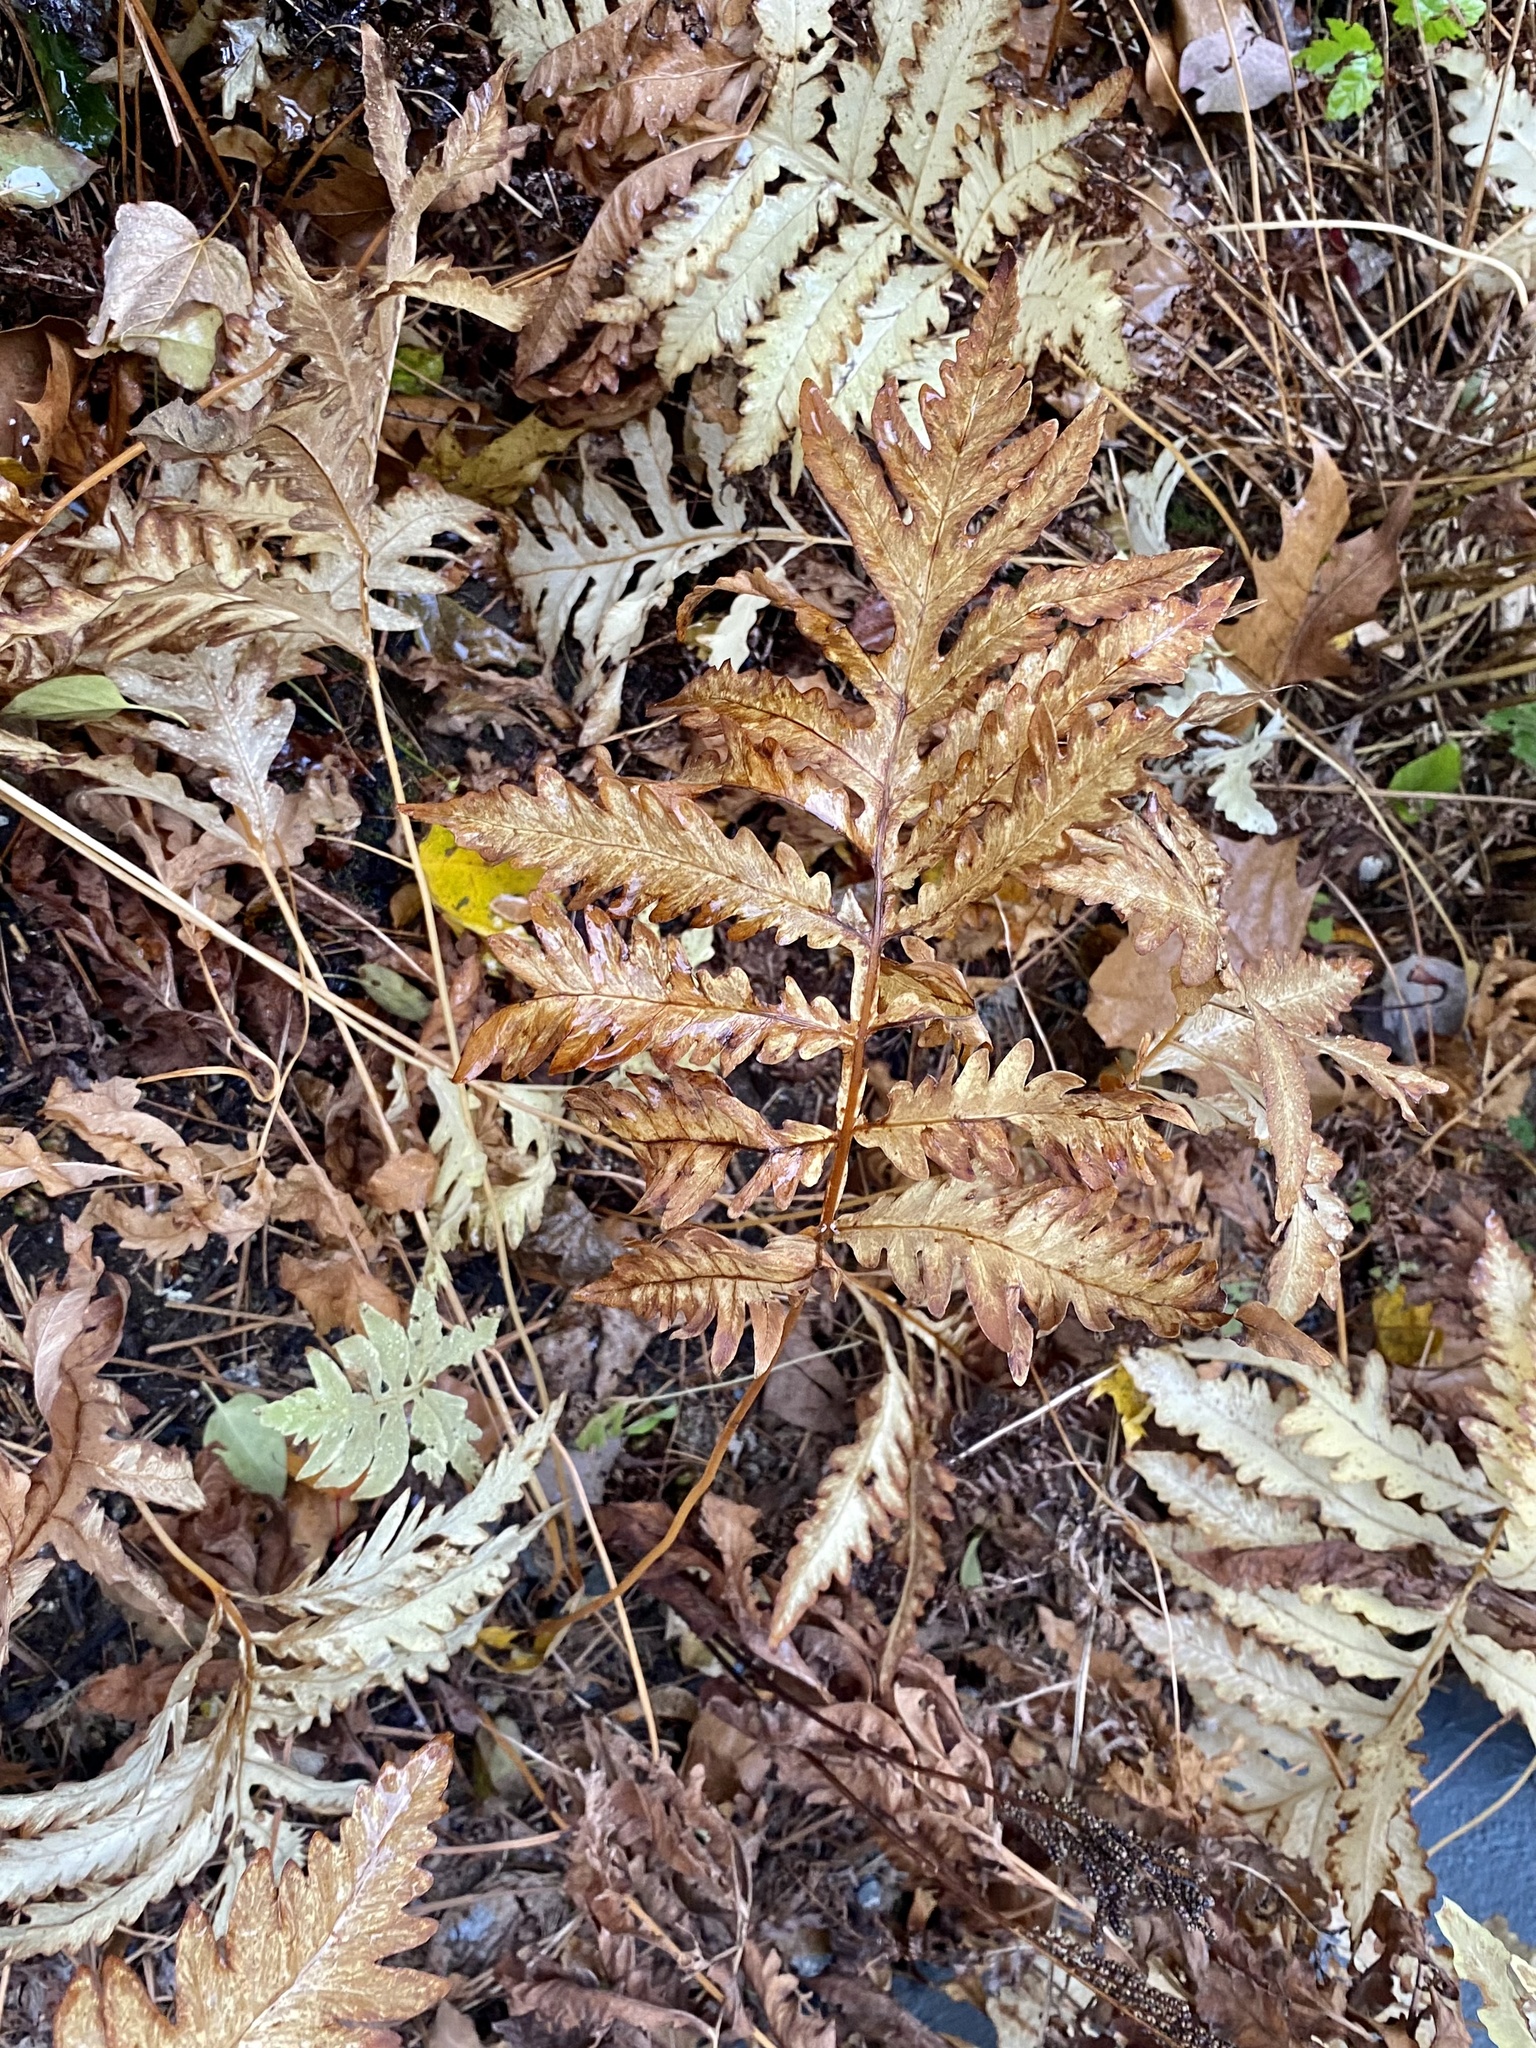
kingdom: Plantae
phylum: Tracheophyta
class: Polypodiopsida
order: Polypodiales
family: Onocleaceae
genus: Onoclea
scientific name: Onoclea sensibilis
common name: Sensitive fern
